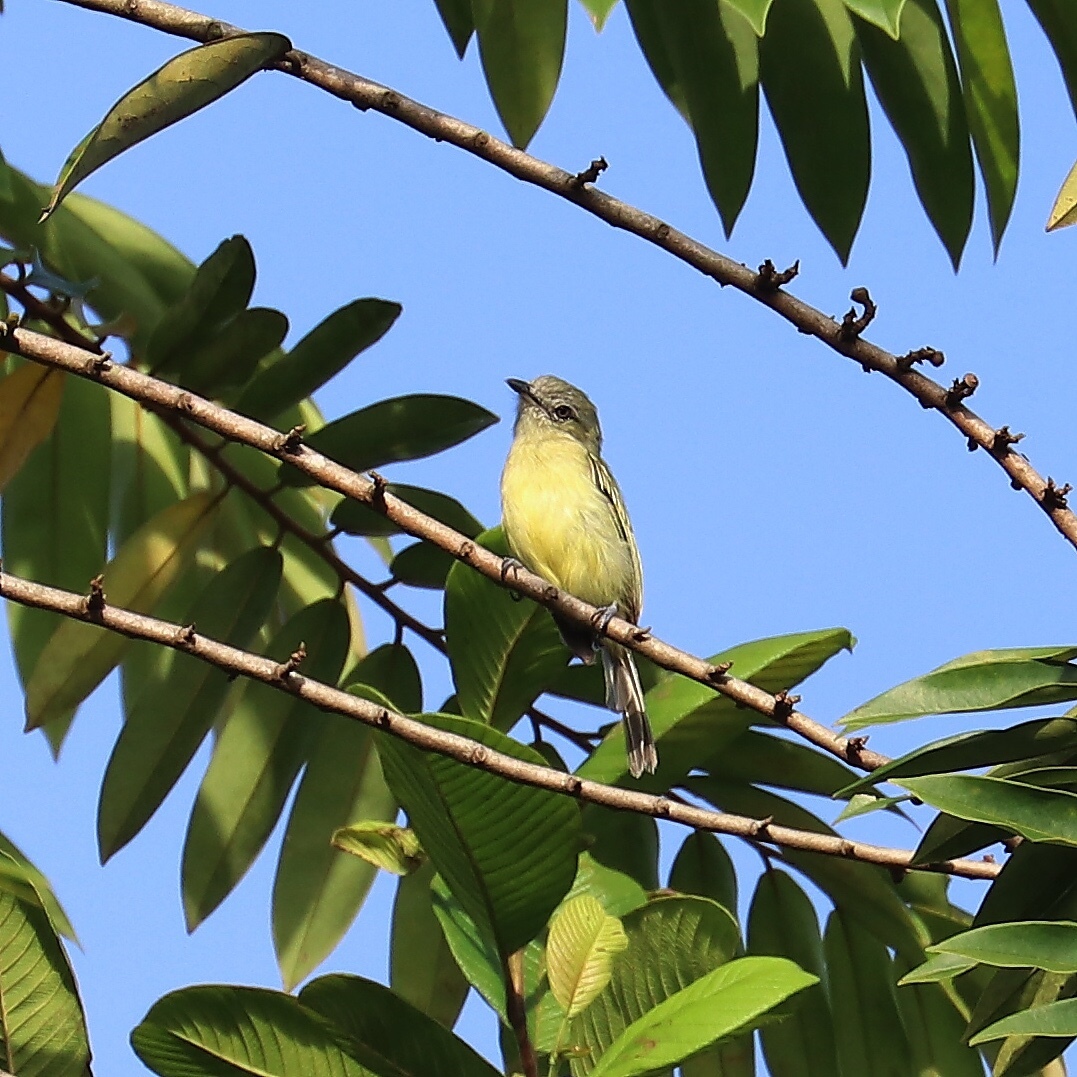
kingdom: Animalia
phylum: Chordata
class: Aves
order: Passeriformes
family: Tyrannidae
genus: Tolmomyias
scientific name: Tolmomyias sulphurescens
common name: Yellow-olive flycatcher
